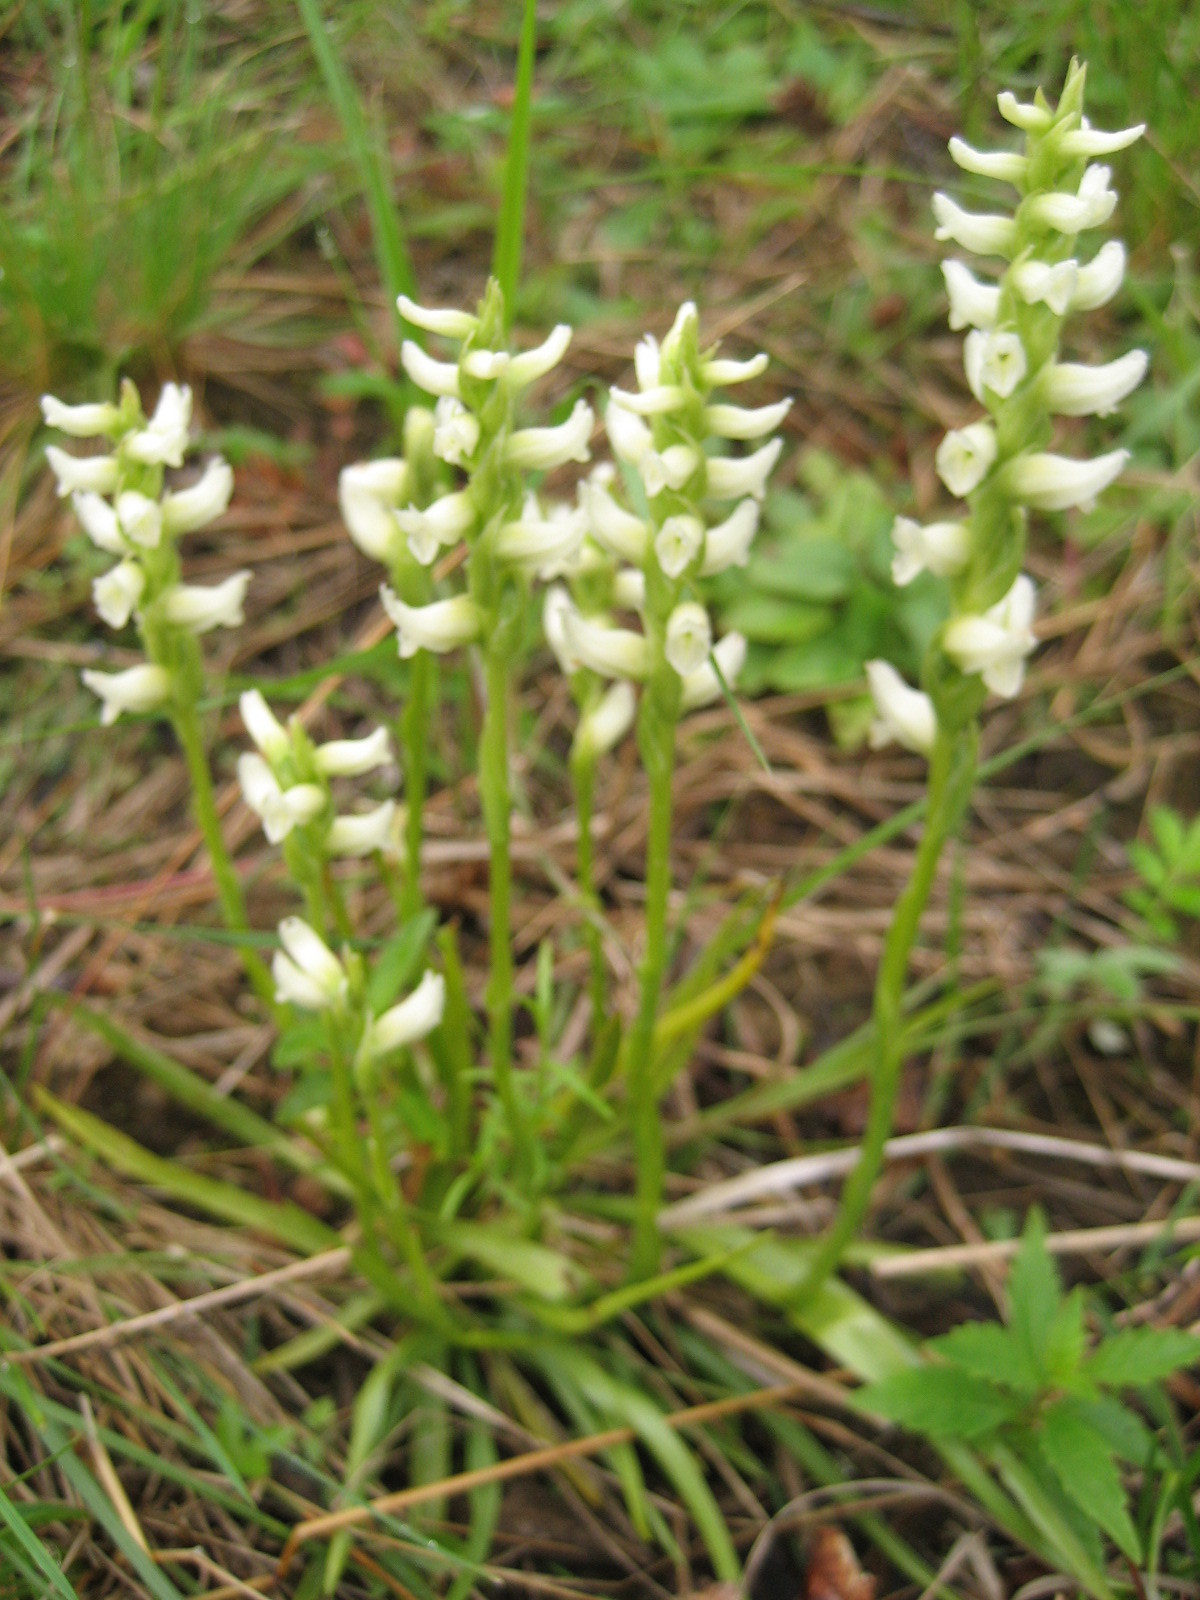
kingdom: Plantae
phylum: Tracheophyta
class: Liliopsida
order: Asparagales
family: Orchidaceae
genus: Spiranthes
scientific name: Spiranthes romanzoffiana
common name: Irish lady's-tresses
